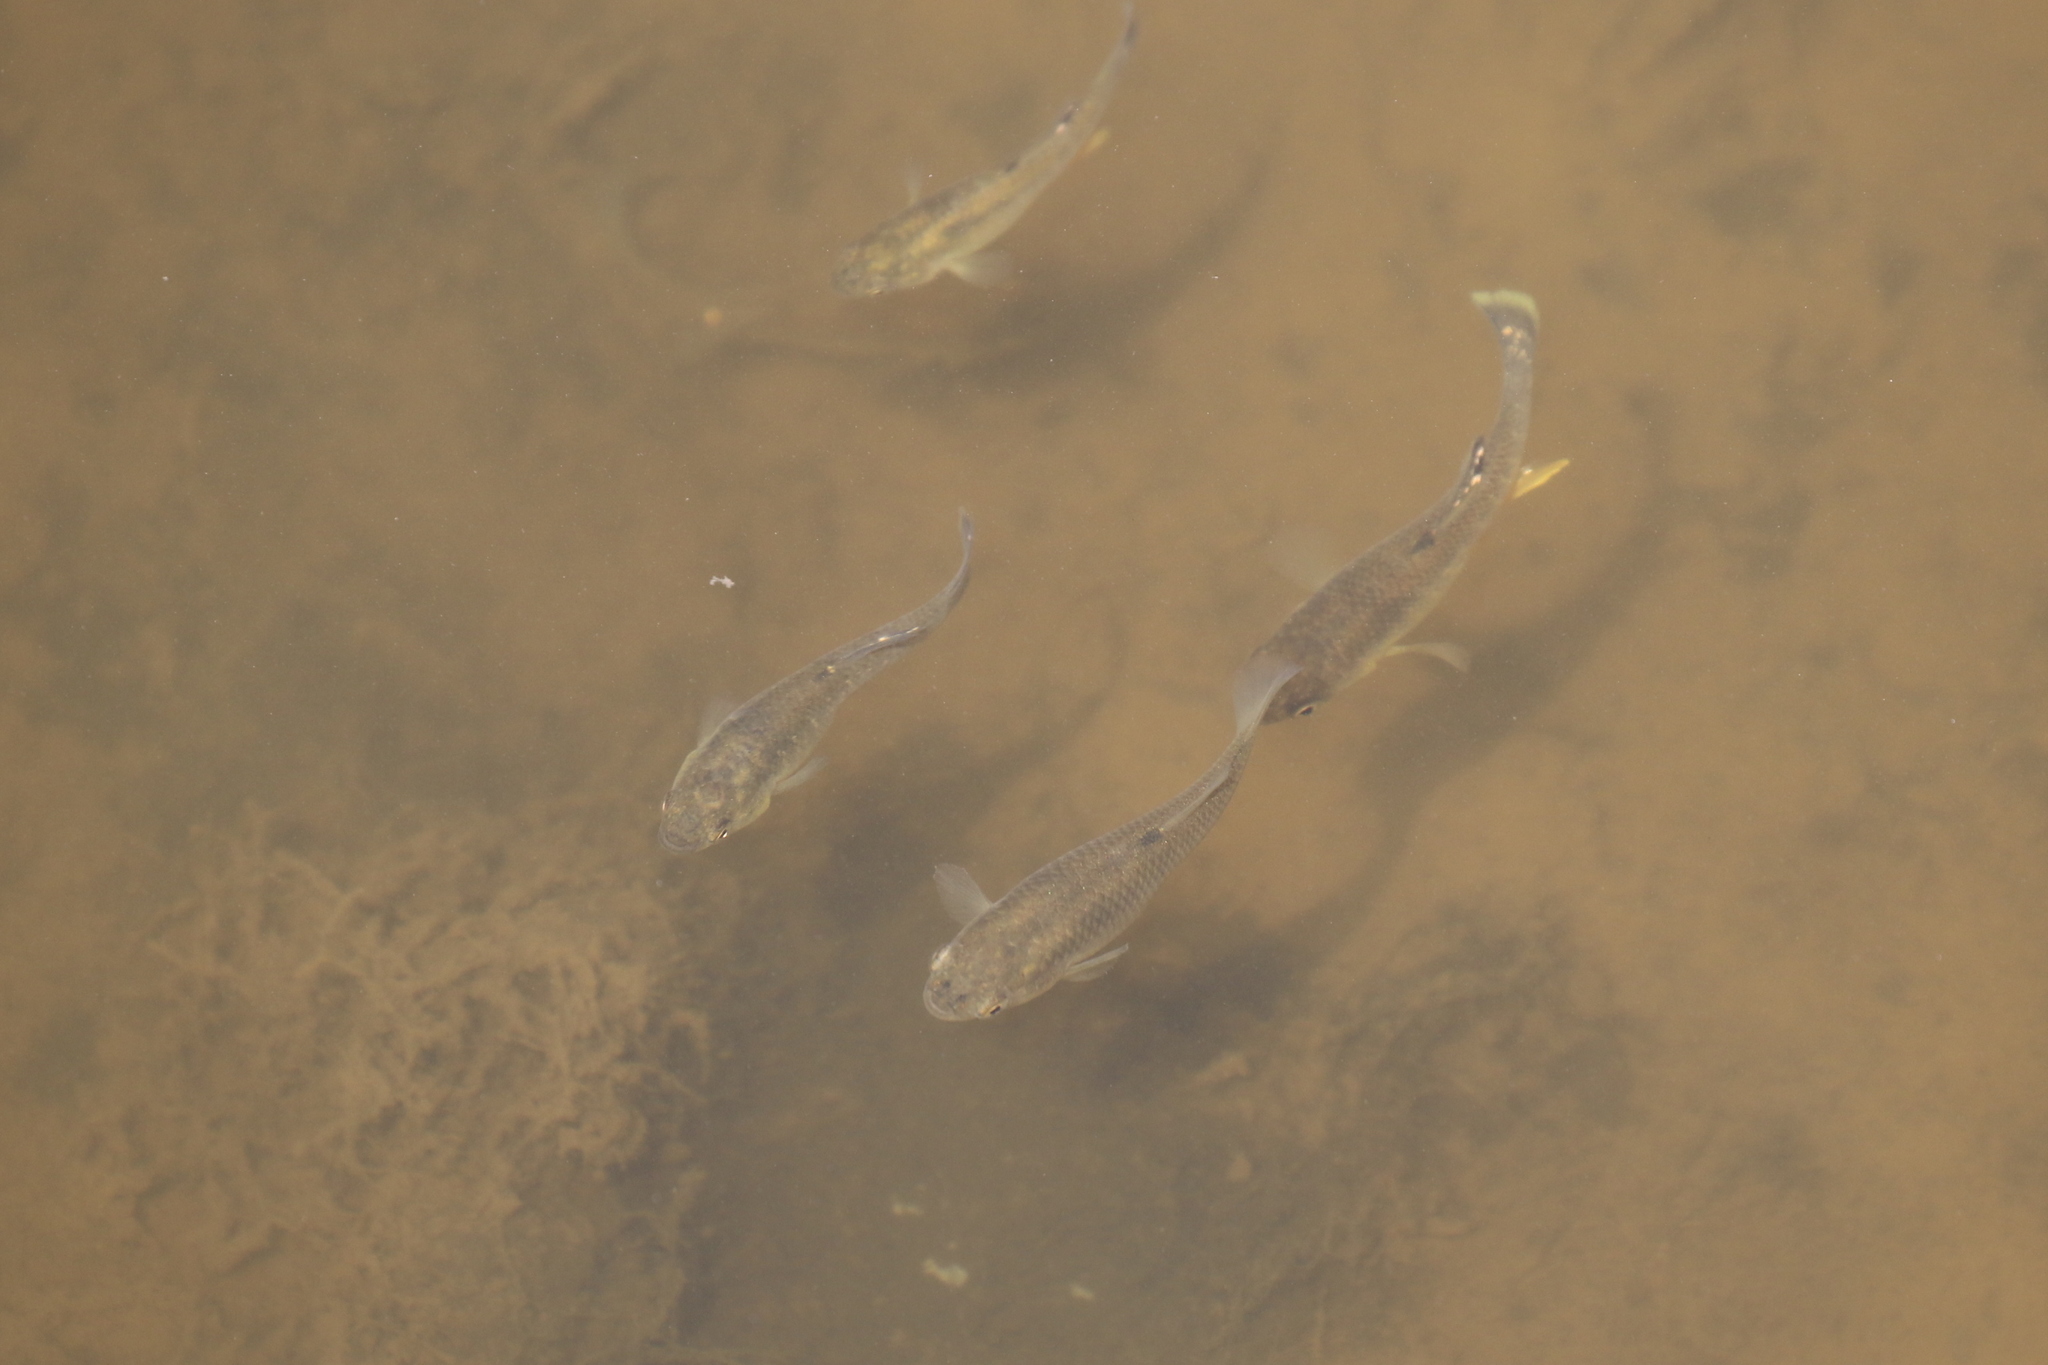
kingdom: Animalia
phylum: Chordata
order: Cyprinodontiformes
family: Fundulidae
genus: Fundulus
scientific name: Fundulus heteroclitus
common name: Mummichog
